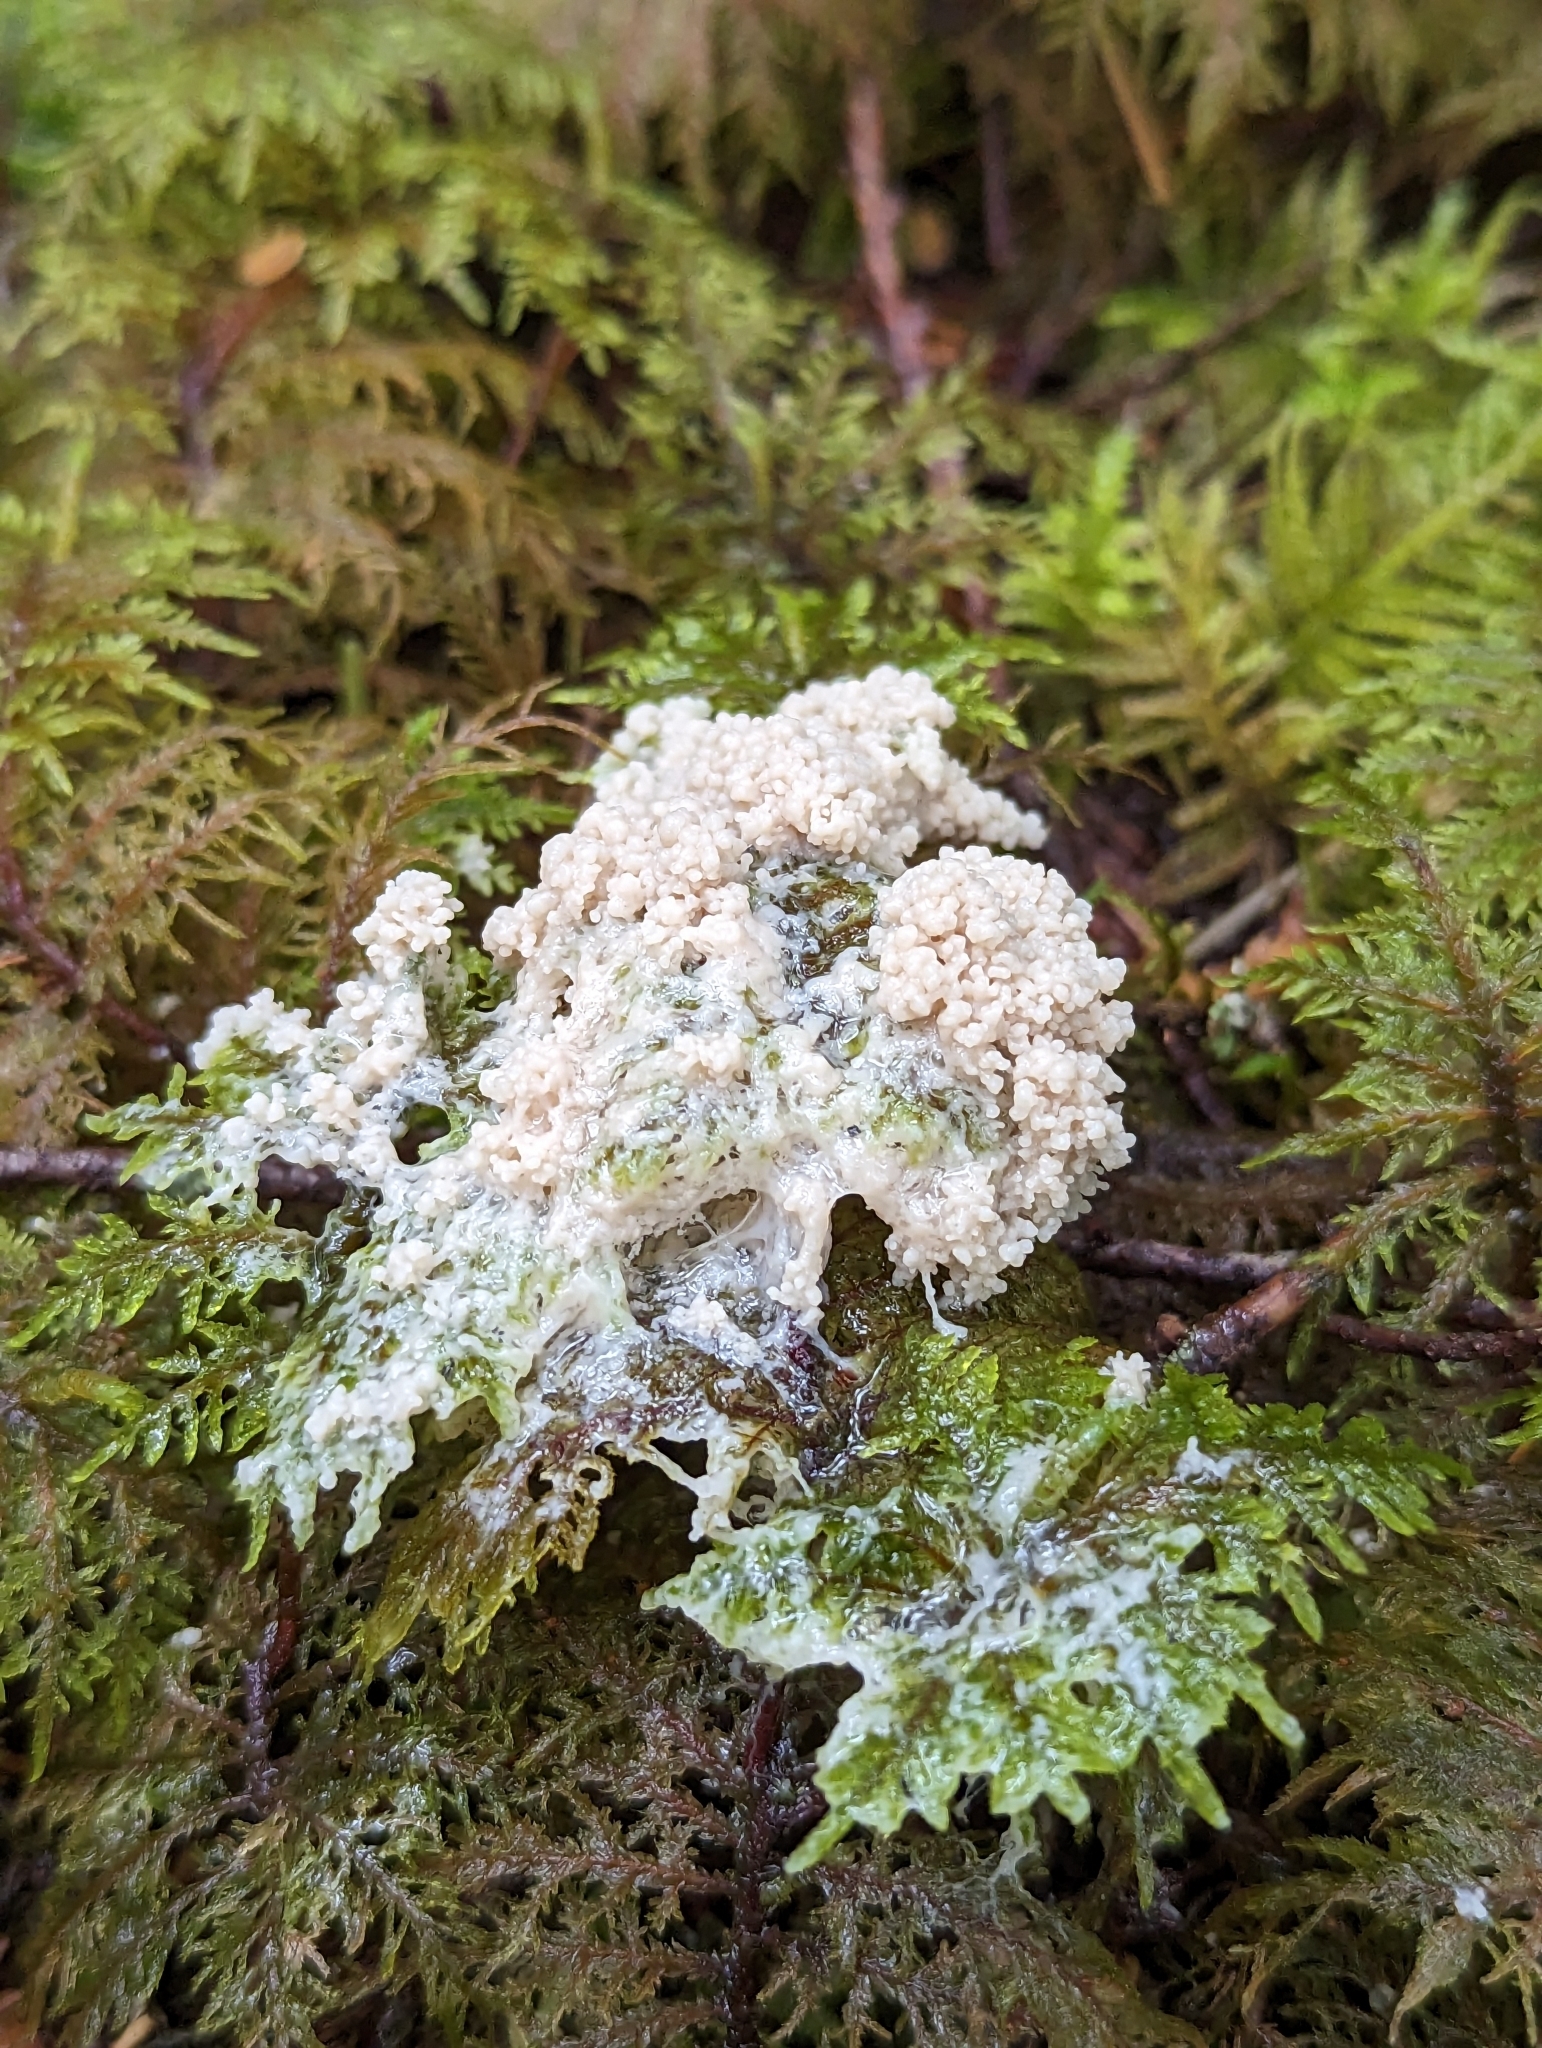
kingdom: Protozoa
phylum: Mycetozoa
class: Myxomycetes
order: Physarales
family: Physaraceae
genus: Didymium
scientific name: Didymium
